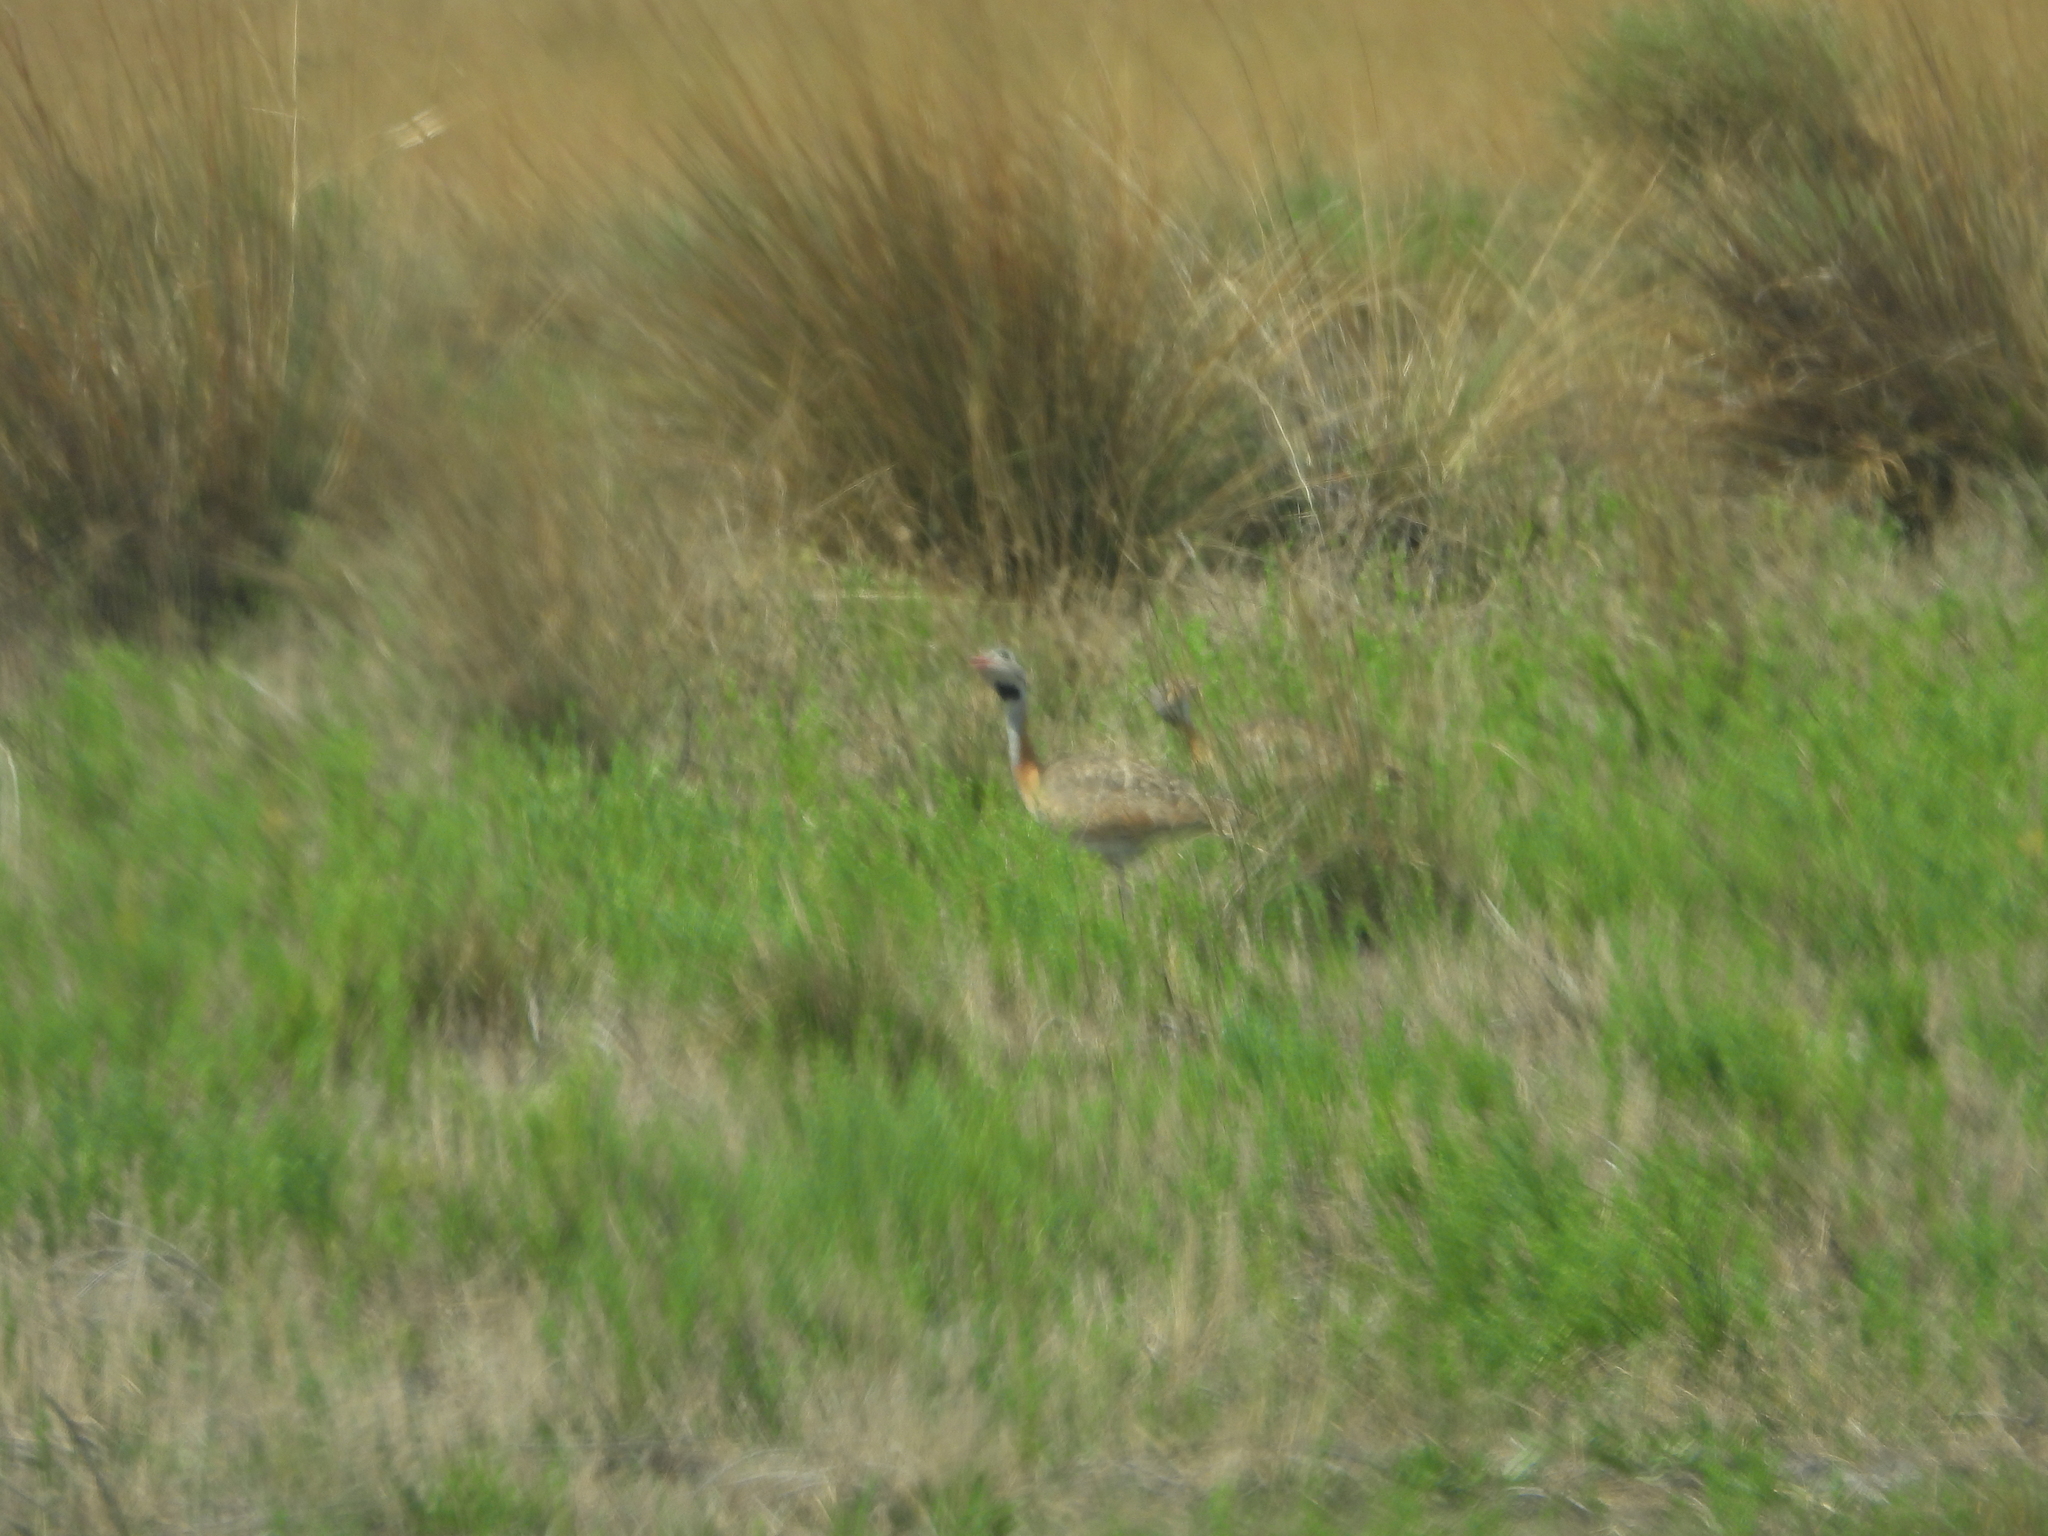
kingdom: Animalia
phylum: Chordata
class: Aves
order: Otidiformes
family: Otididae
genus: Eupodotis
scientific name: Eupodotis senegalensis
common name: White-bellied bustard
